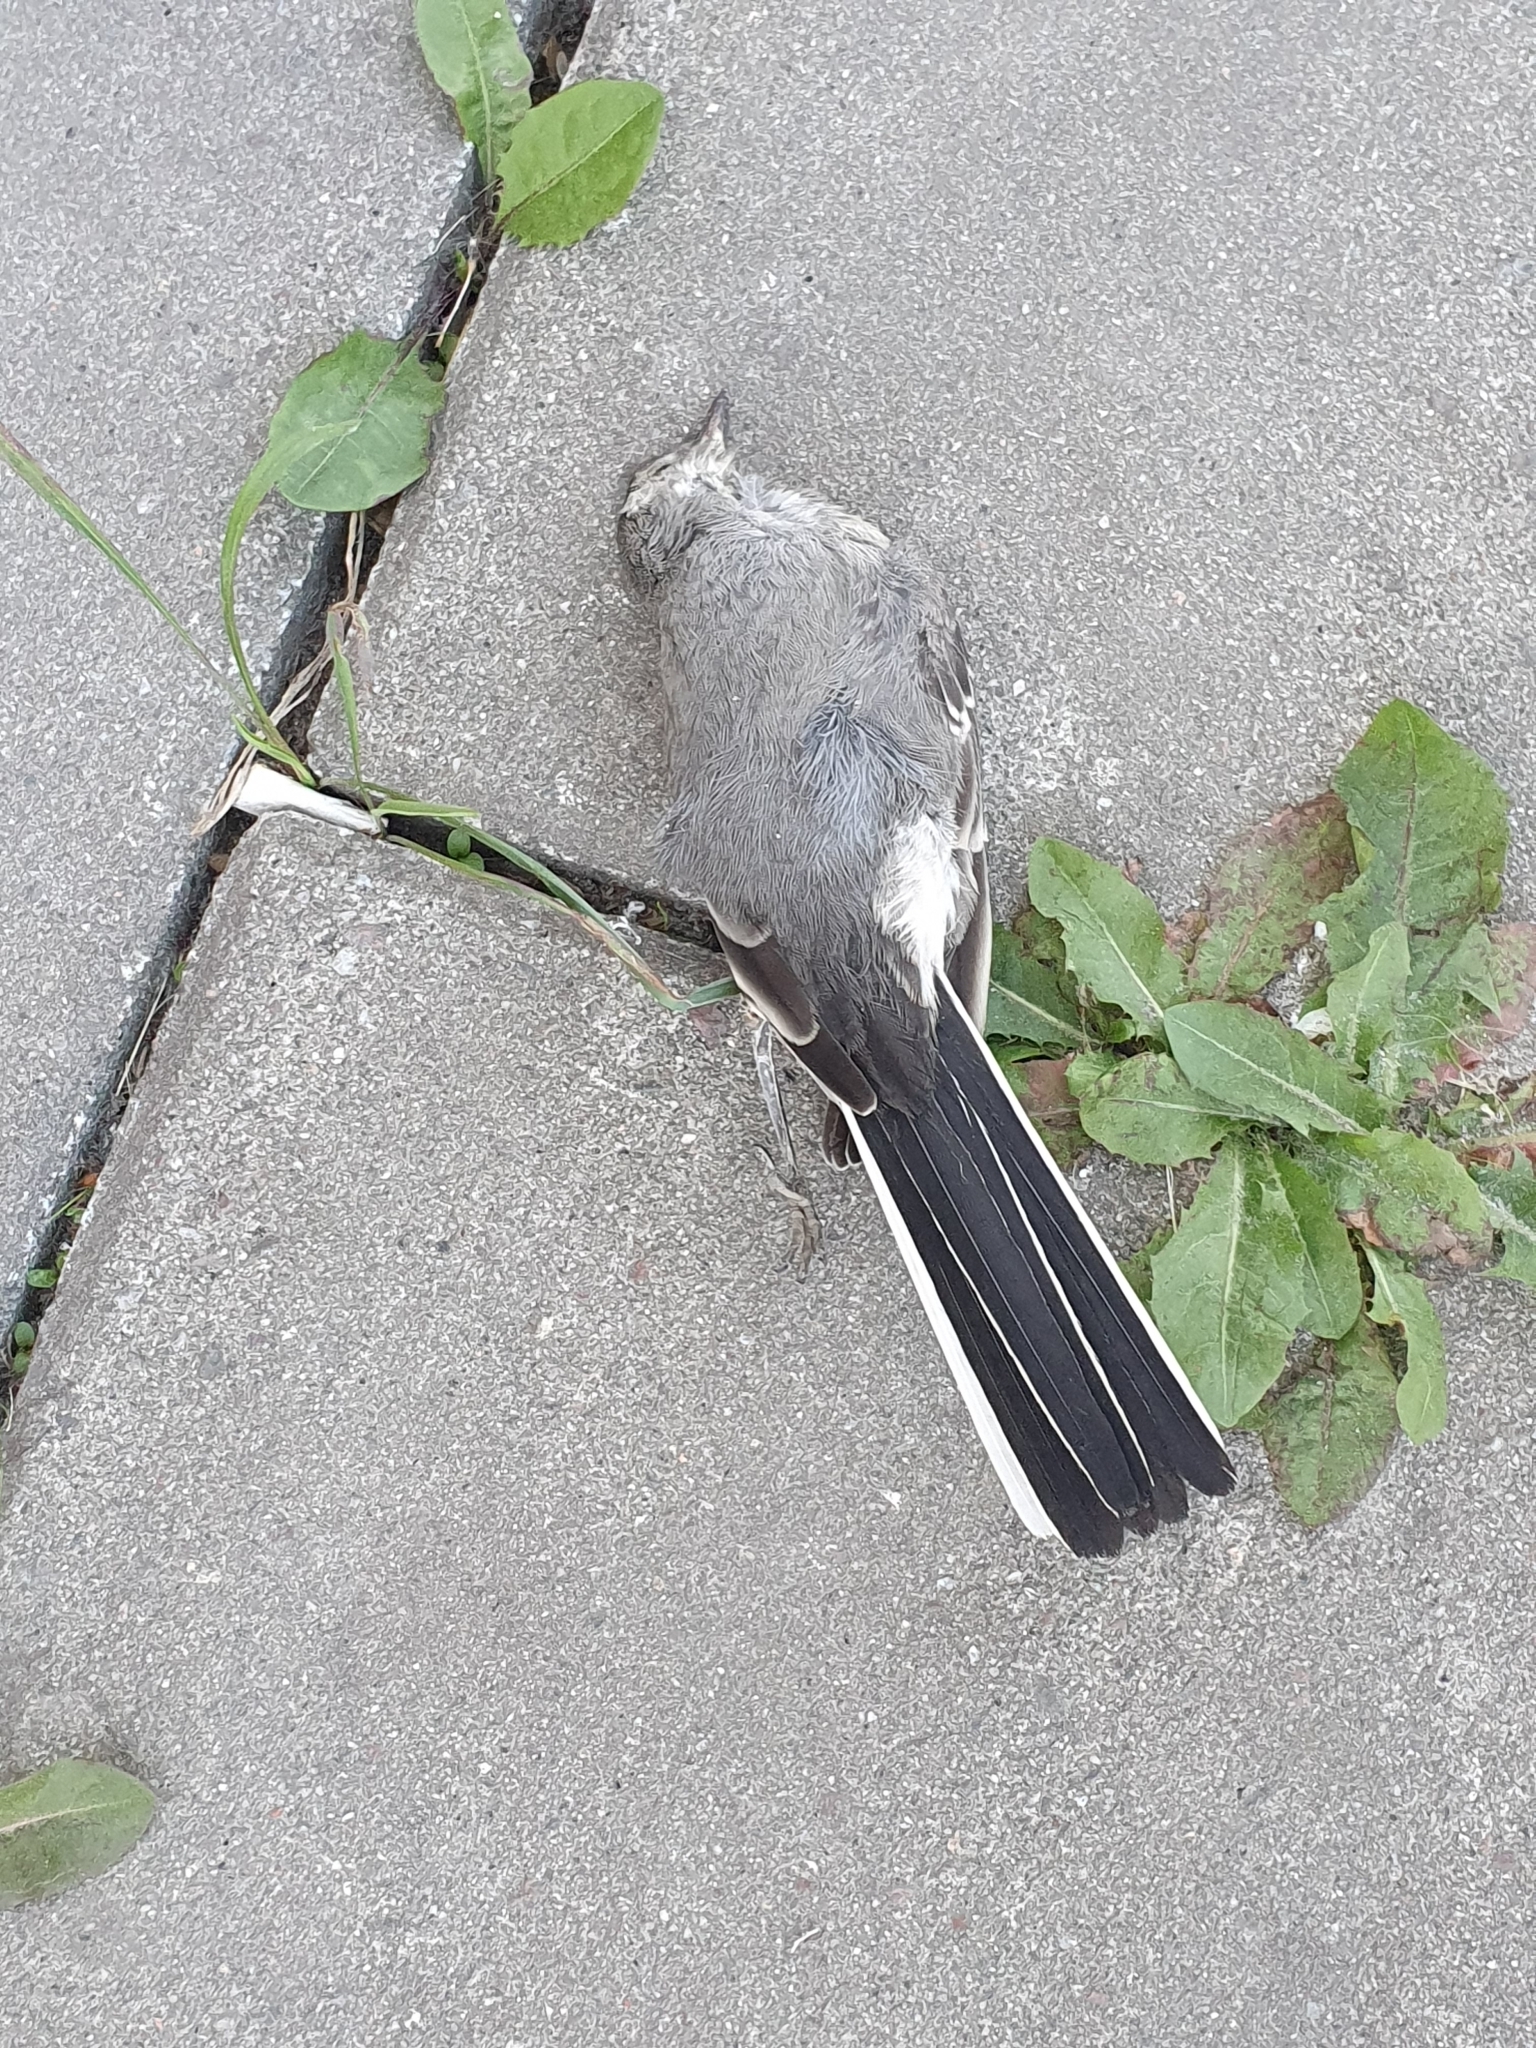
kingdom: Animalia
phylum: Chordata
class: Aves
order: Passeriformes
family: Motacillidae
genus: Motacilla
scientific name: Motacilla alba
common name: White wagtail
